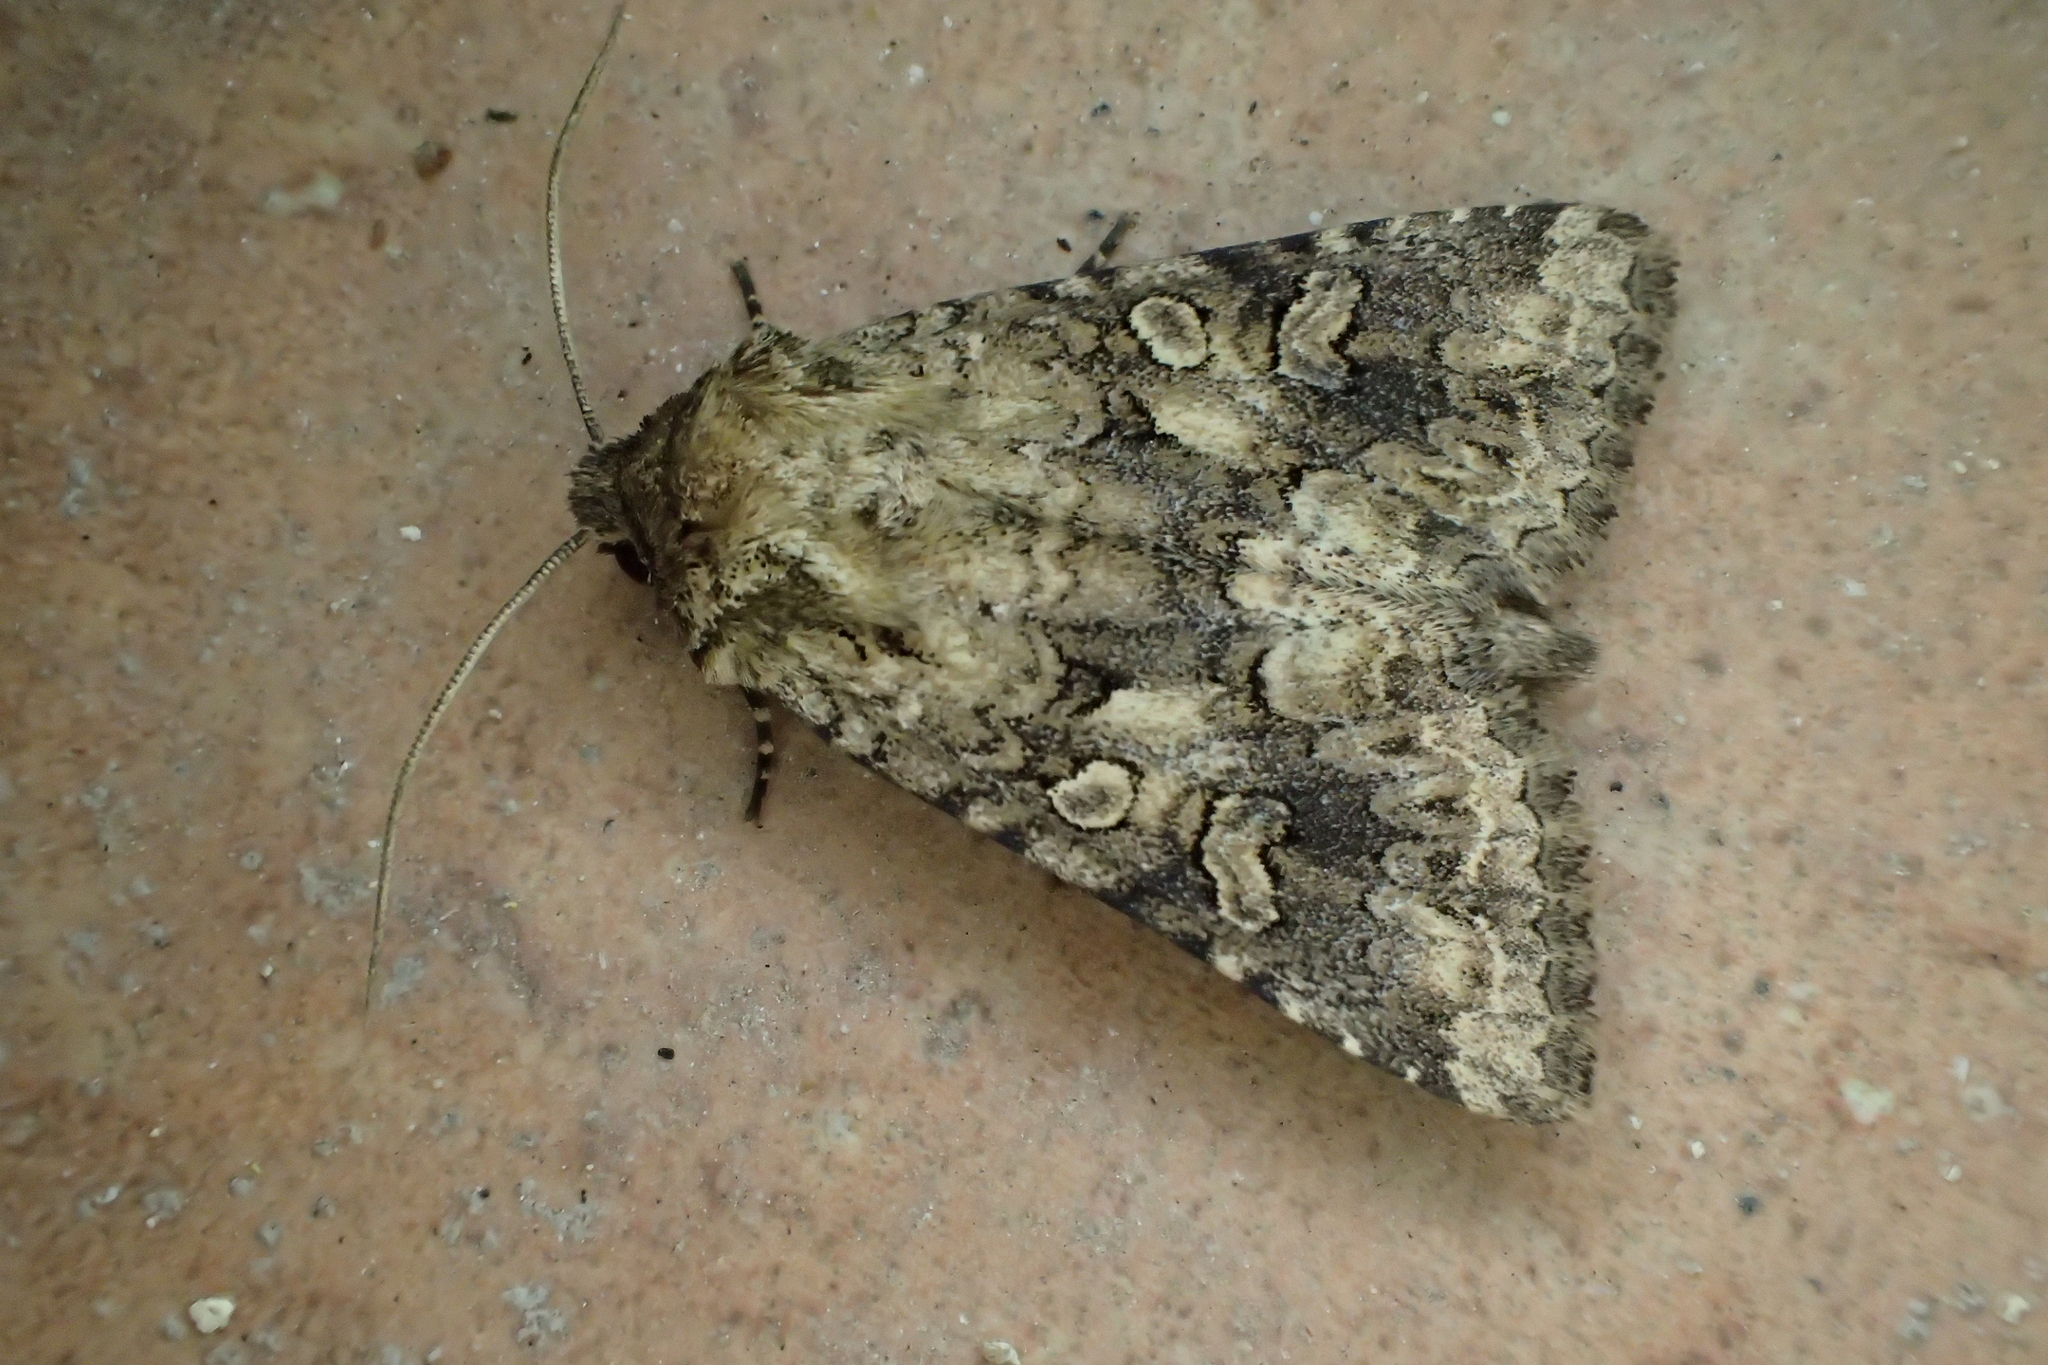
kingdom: Animalia
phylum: Arthropoda
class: Insecta
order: Lepidoptera
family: Noctuidae
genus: Conisania
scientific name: Conisania luteago
